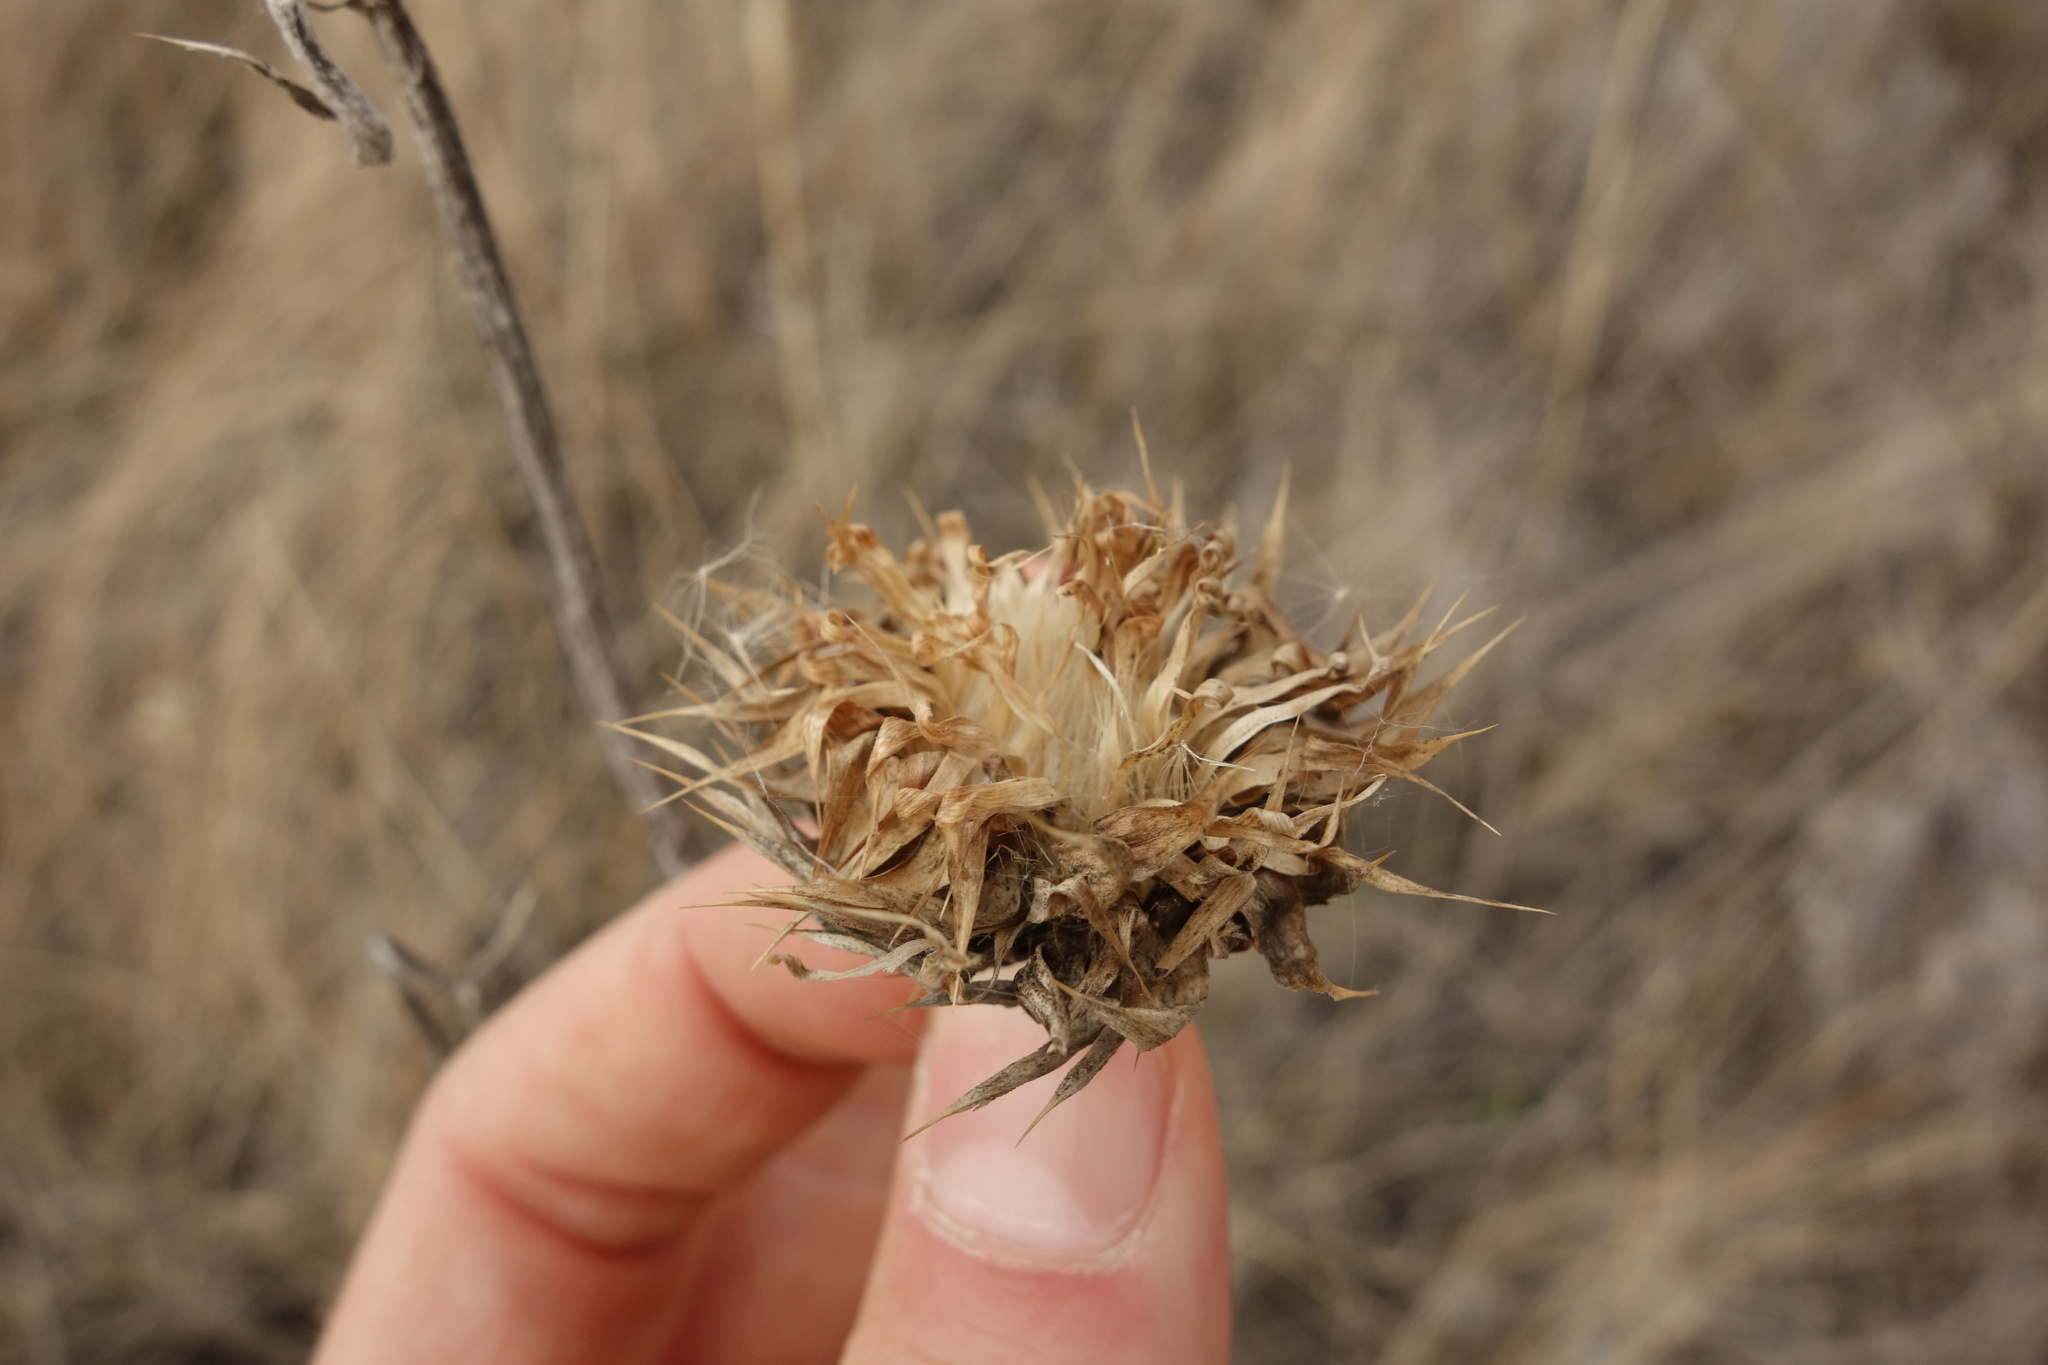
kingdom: Plantae
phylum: Tracheophyta
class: Magnoliopsida
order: Asterales
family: Asteraceae
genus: Carlina
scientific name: Carlina biebersteinii
